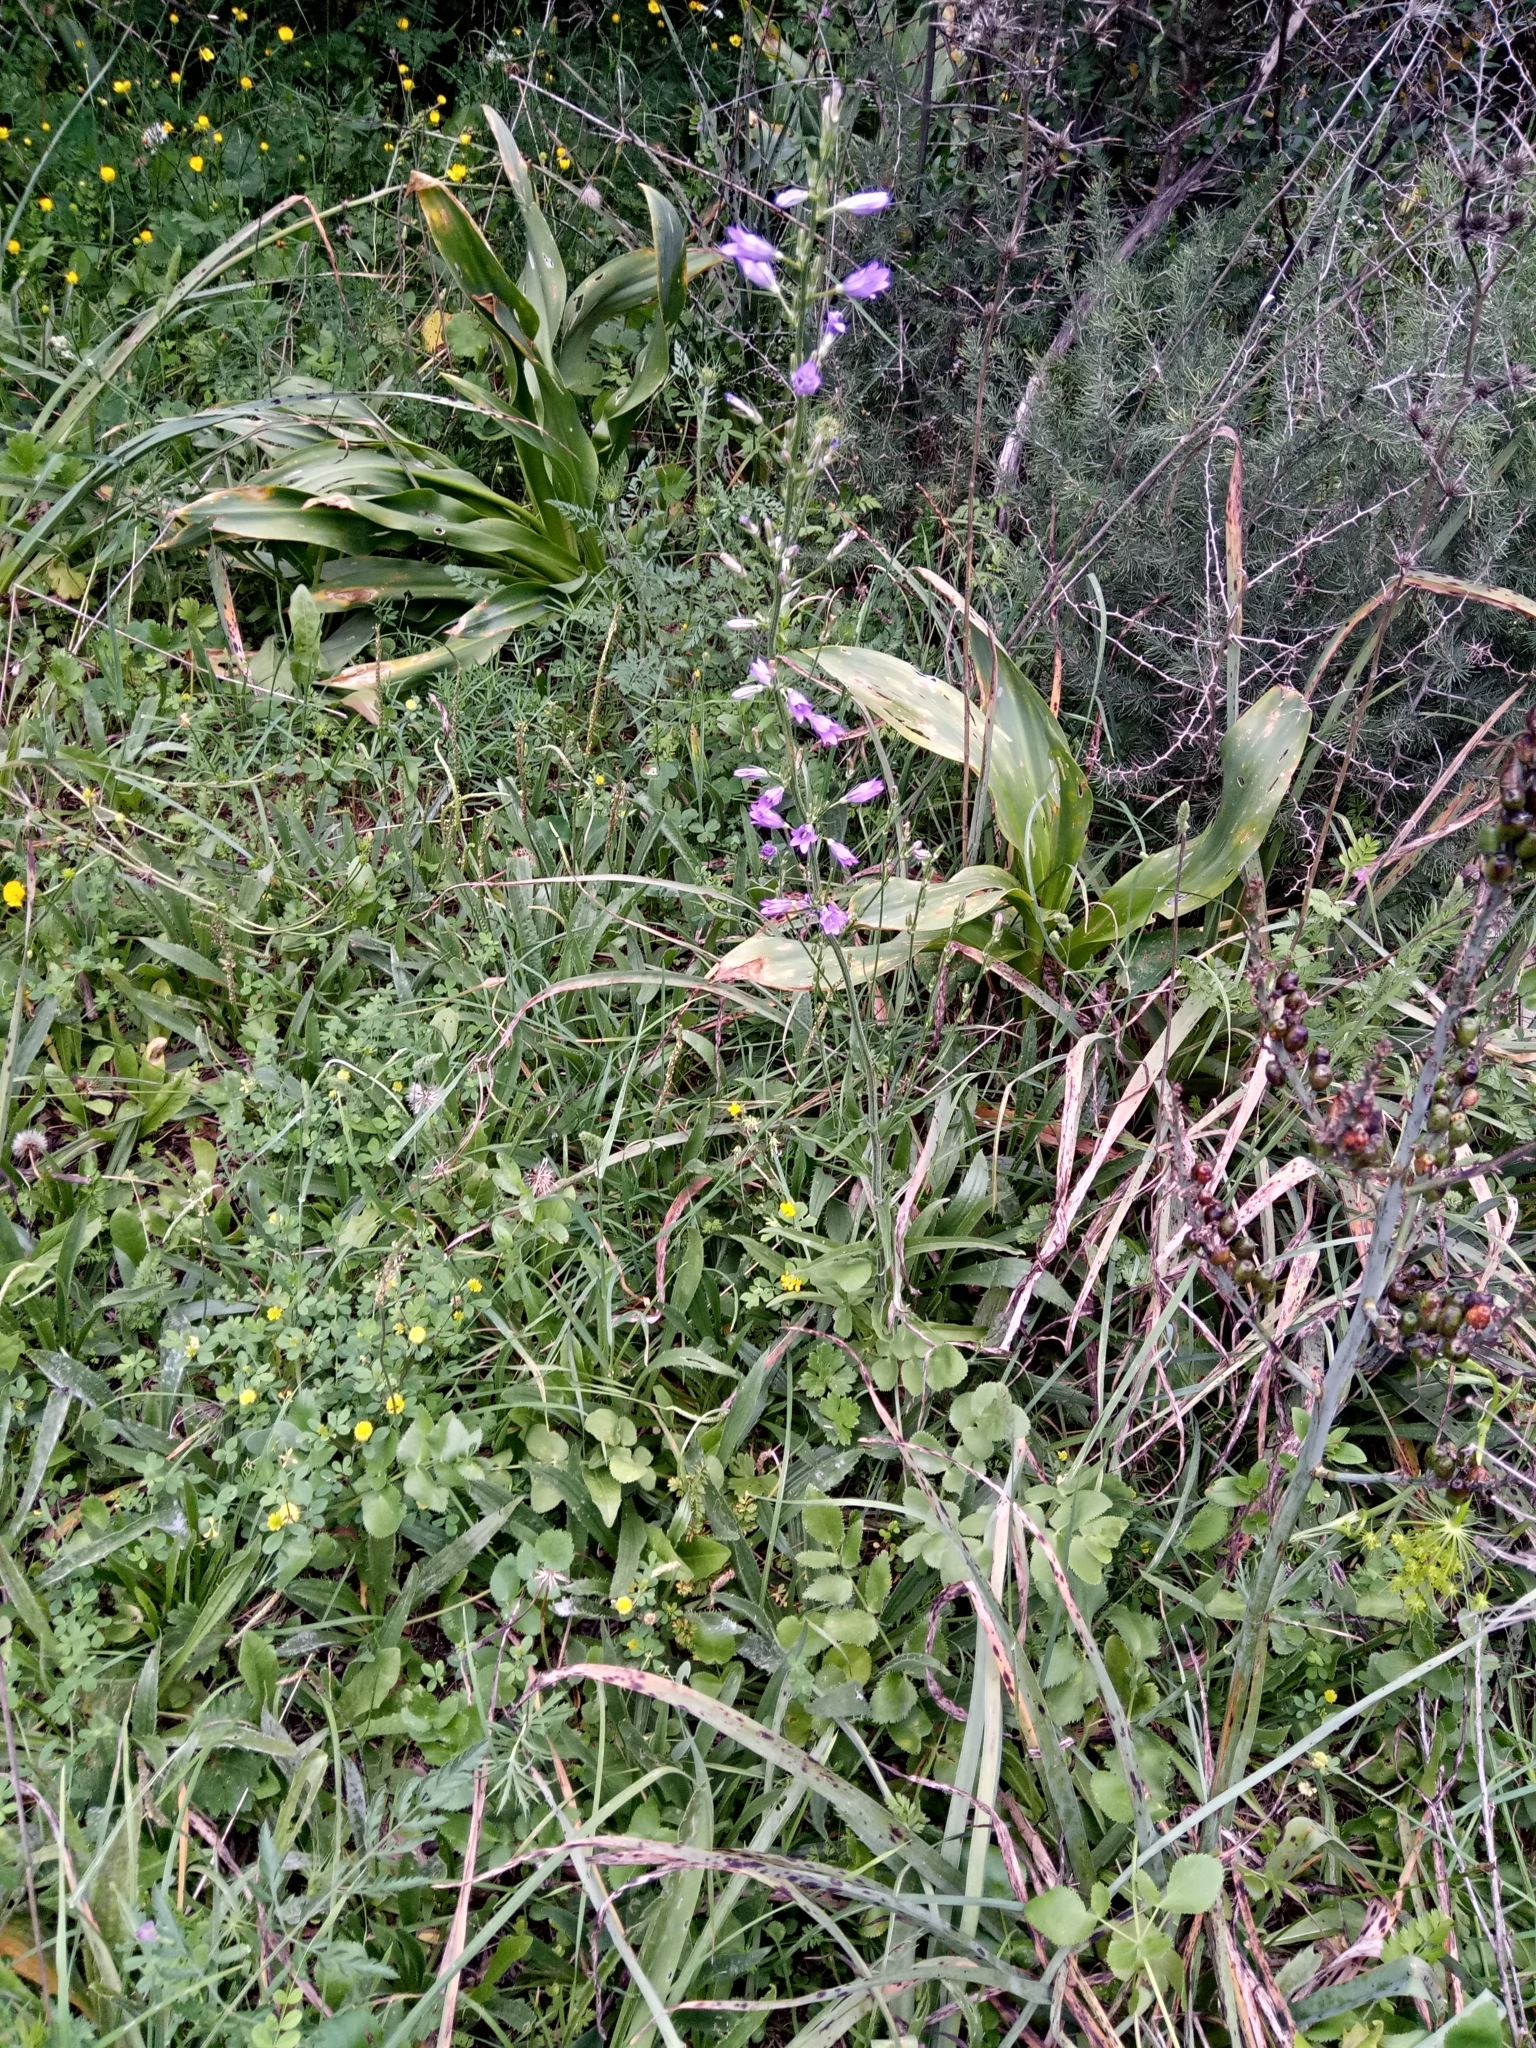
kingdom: Plantae
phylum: Tracheophyta
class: Magnoliopsida
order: Asterales
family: Campanulaceae
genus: Campanula
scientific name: Campanula rapunculus
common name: Rampion bellflower
